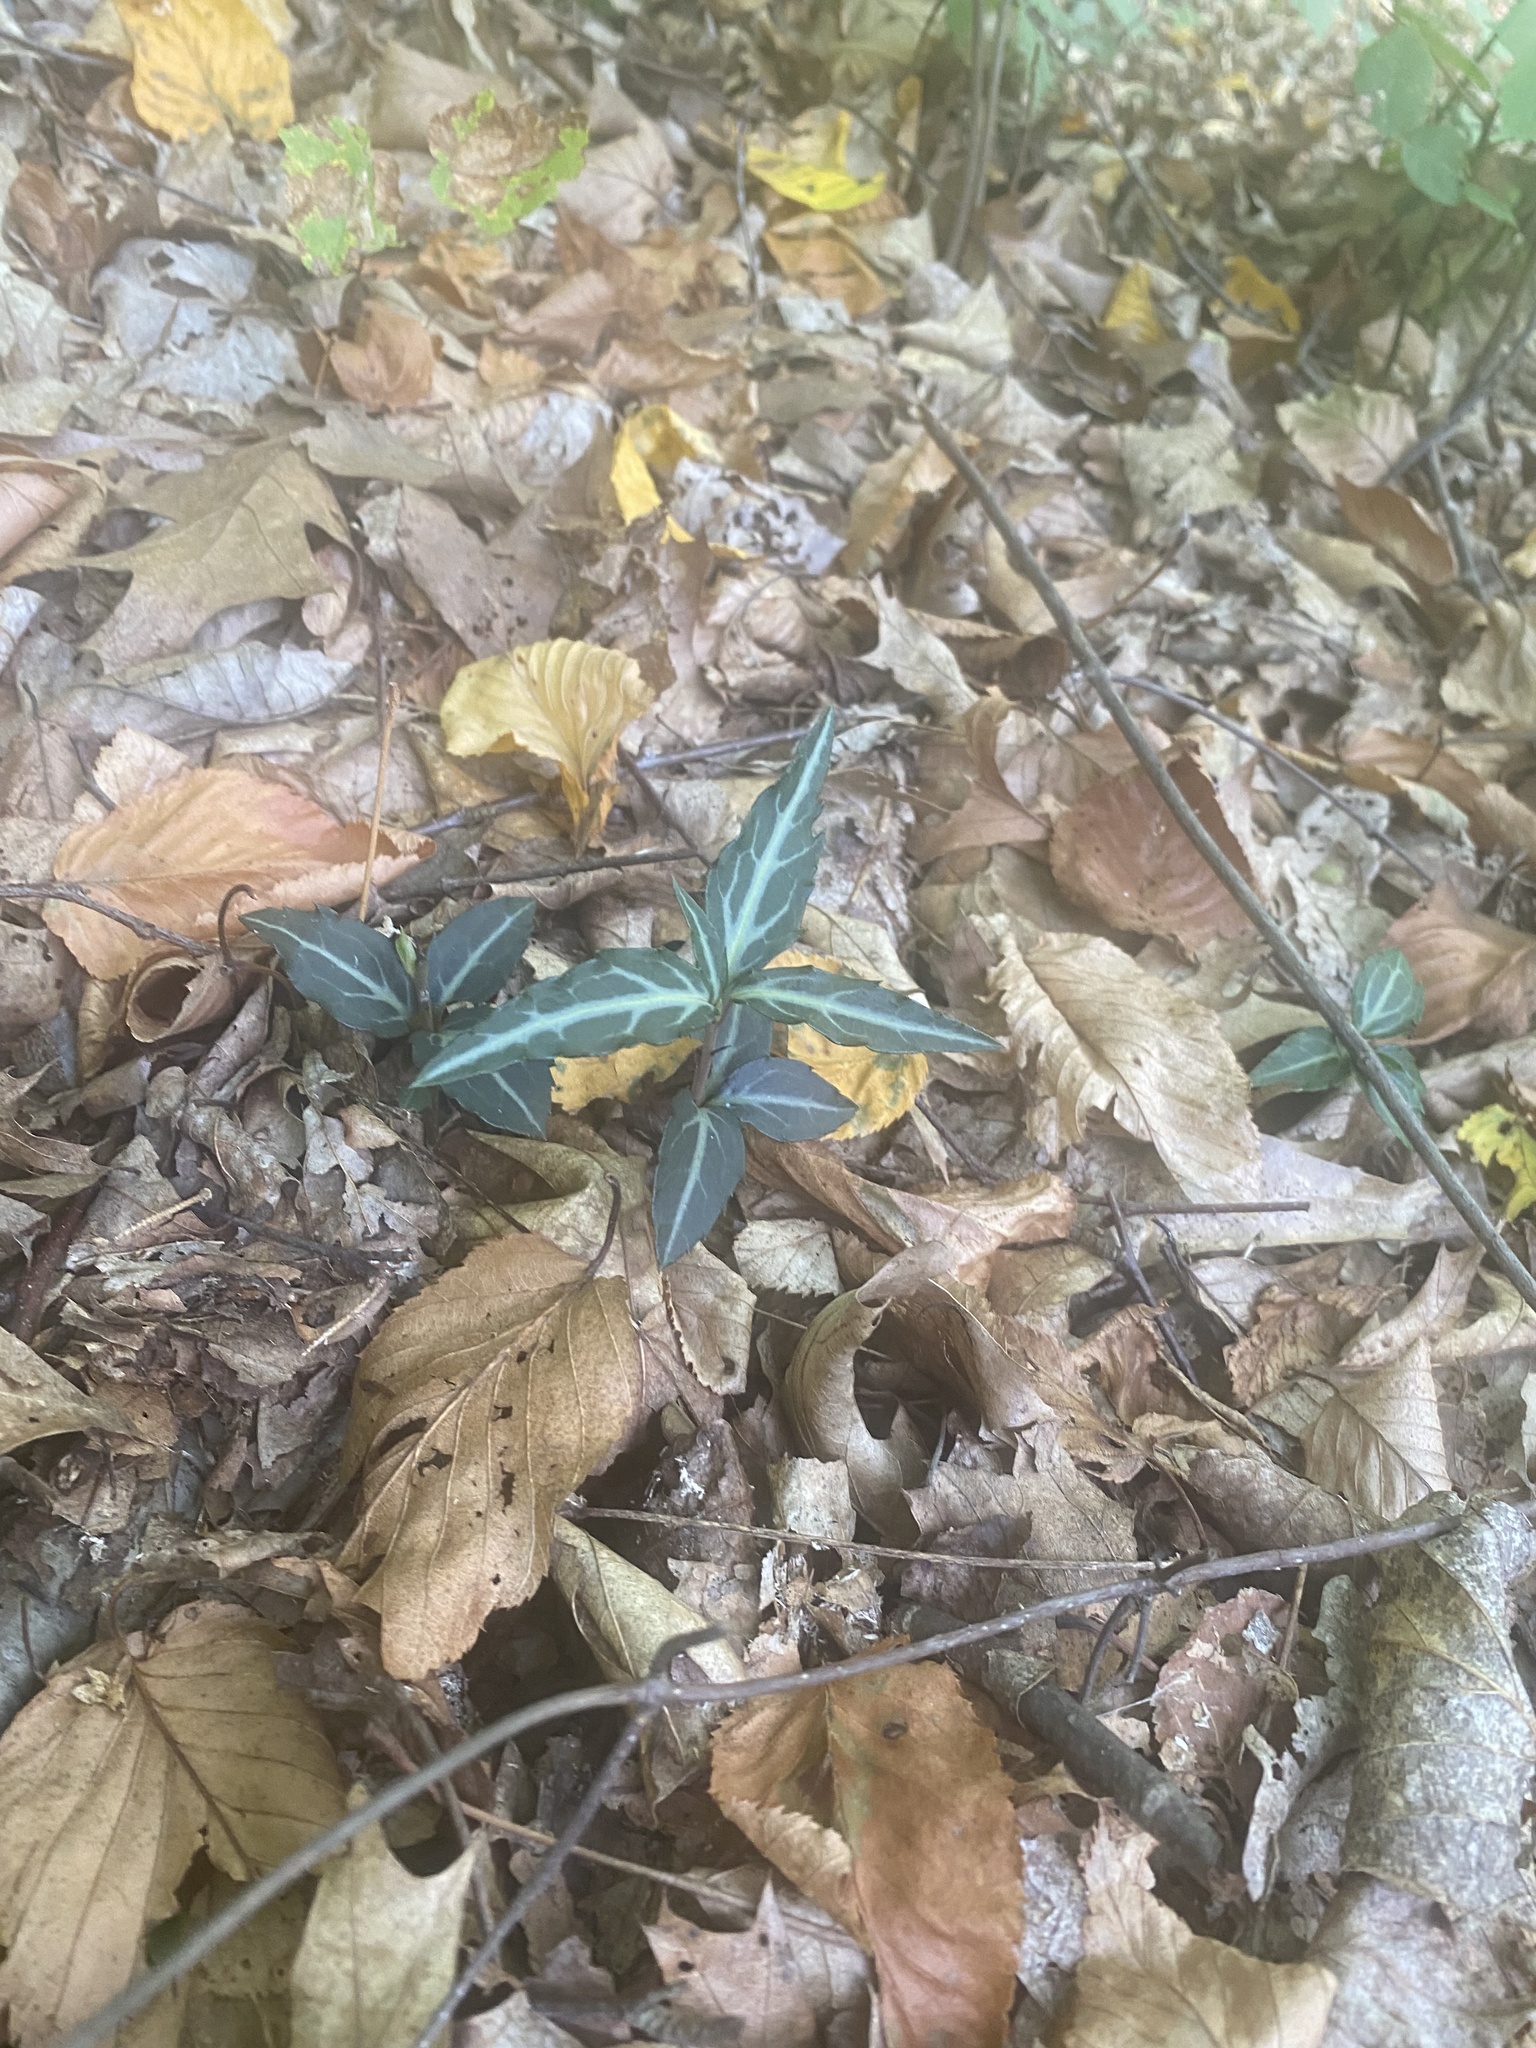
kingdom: Plantae
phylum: Tracheophyta
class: Magnoliopsida
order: Ericales
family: Ericaceae
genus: Chimaphila
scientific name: Chimaphila maculata
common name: Spotted pipsissewa
